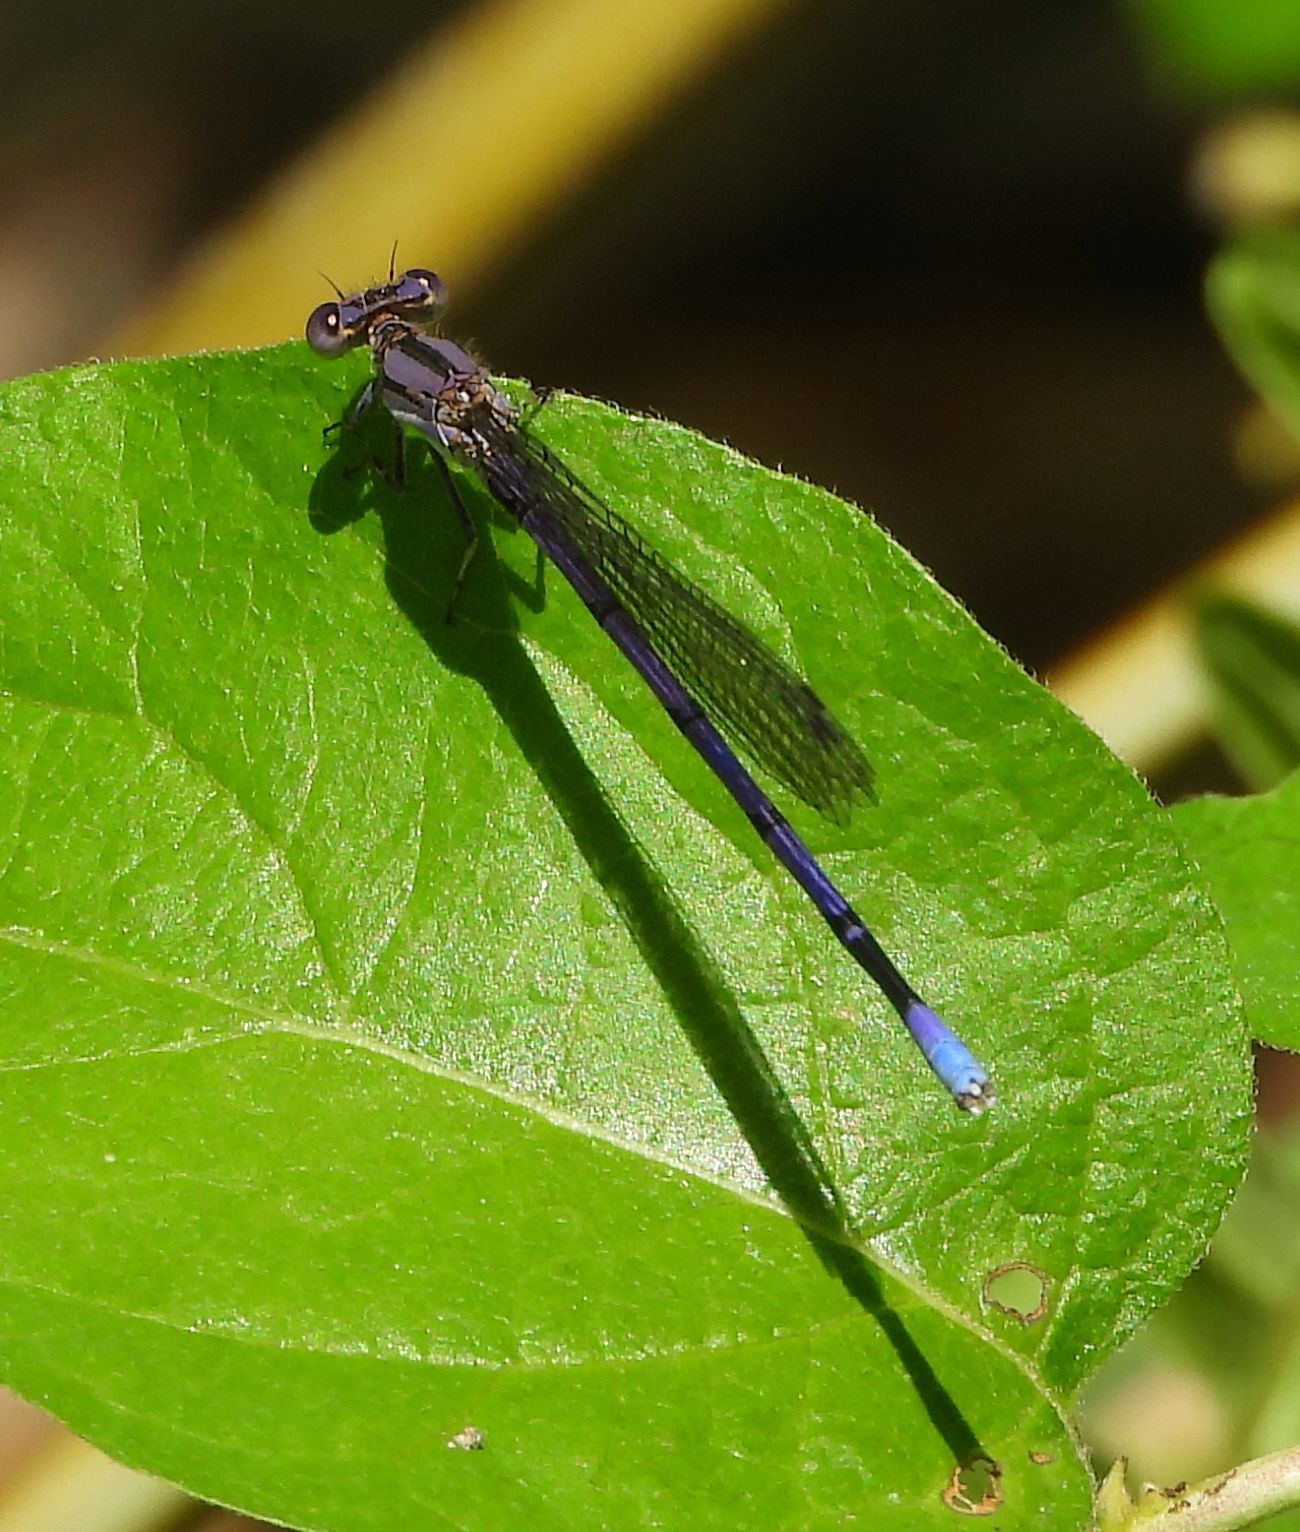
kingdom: Animalia
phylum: Arthropoda
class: Insecta
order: Odonata
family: Coenagrionidae
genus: Argia
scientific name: Argia fumipennis
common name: Variable dancer
